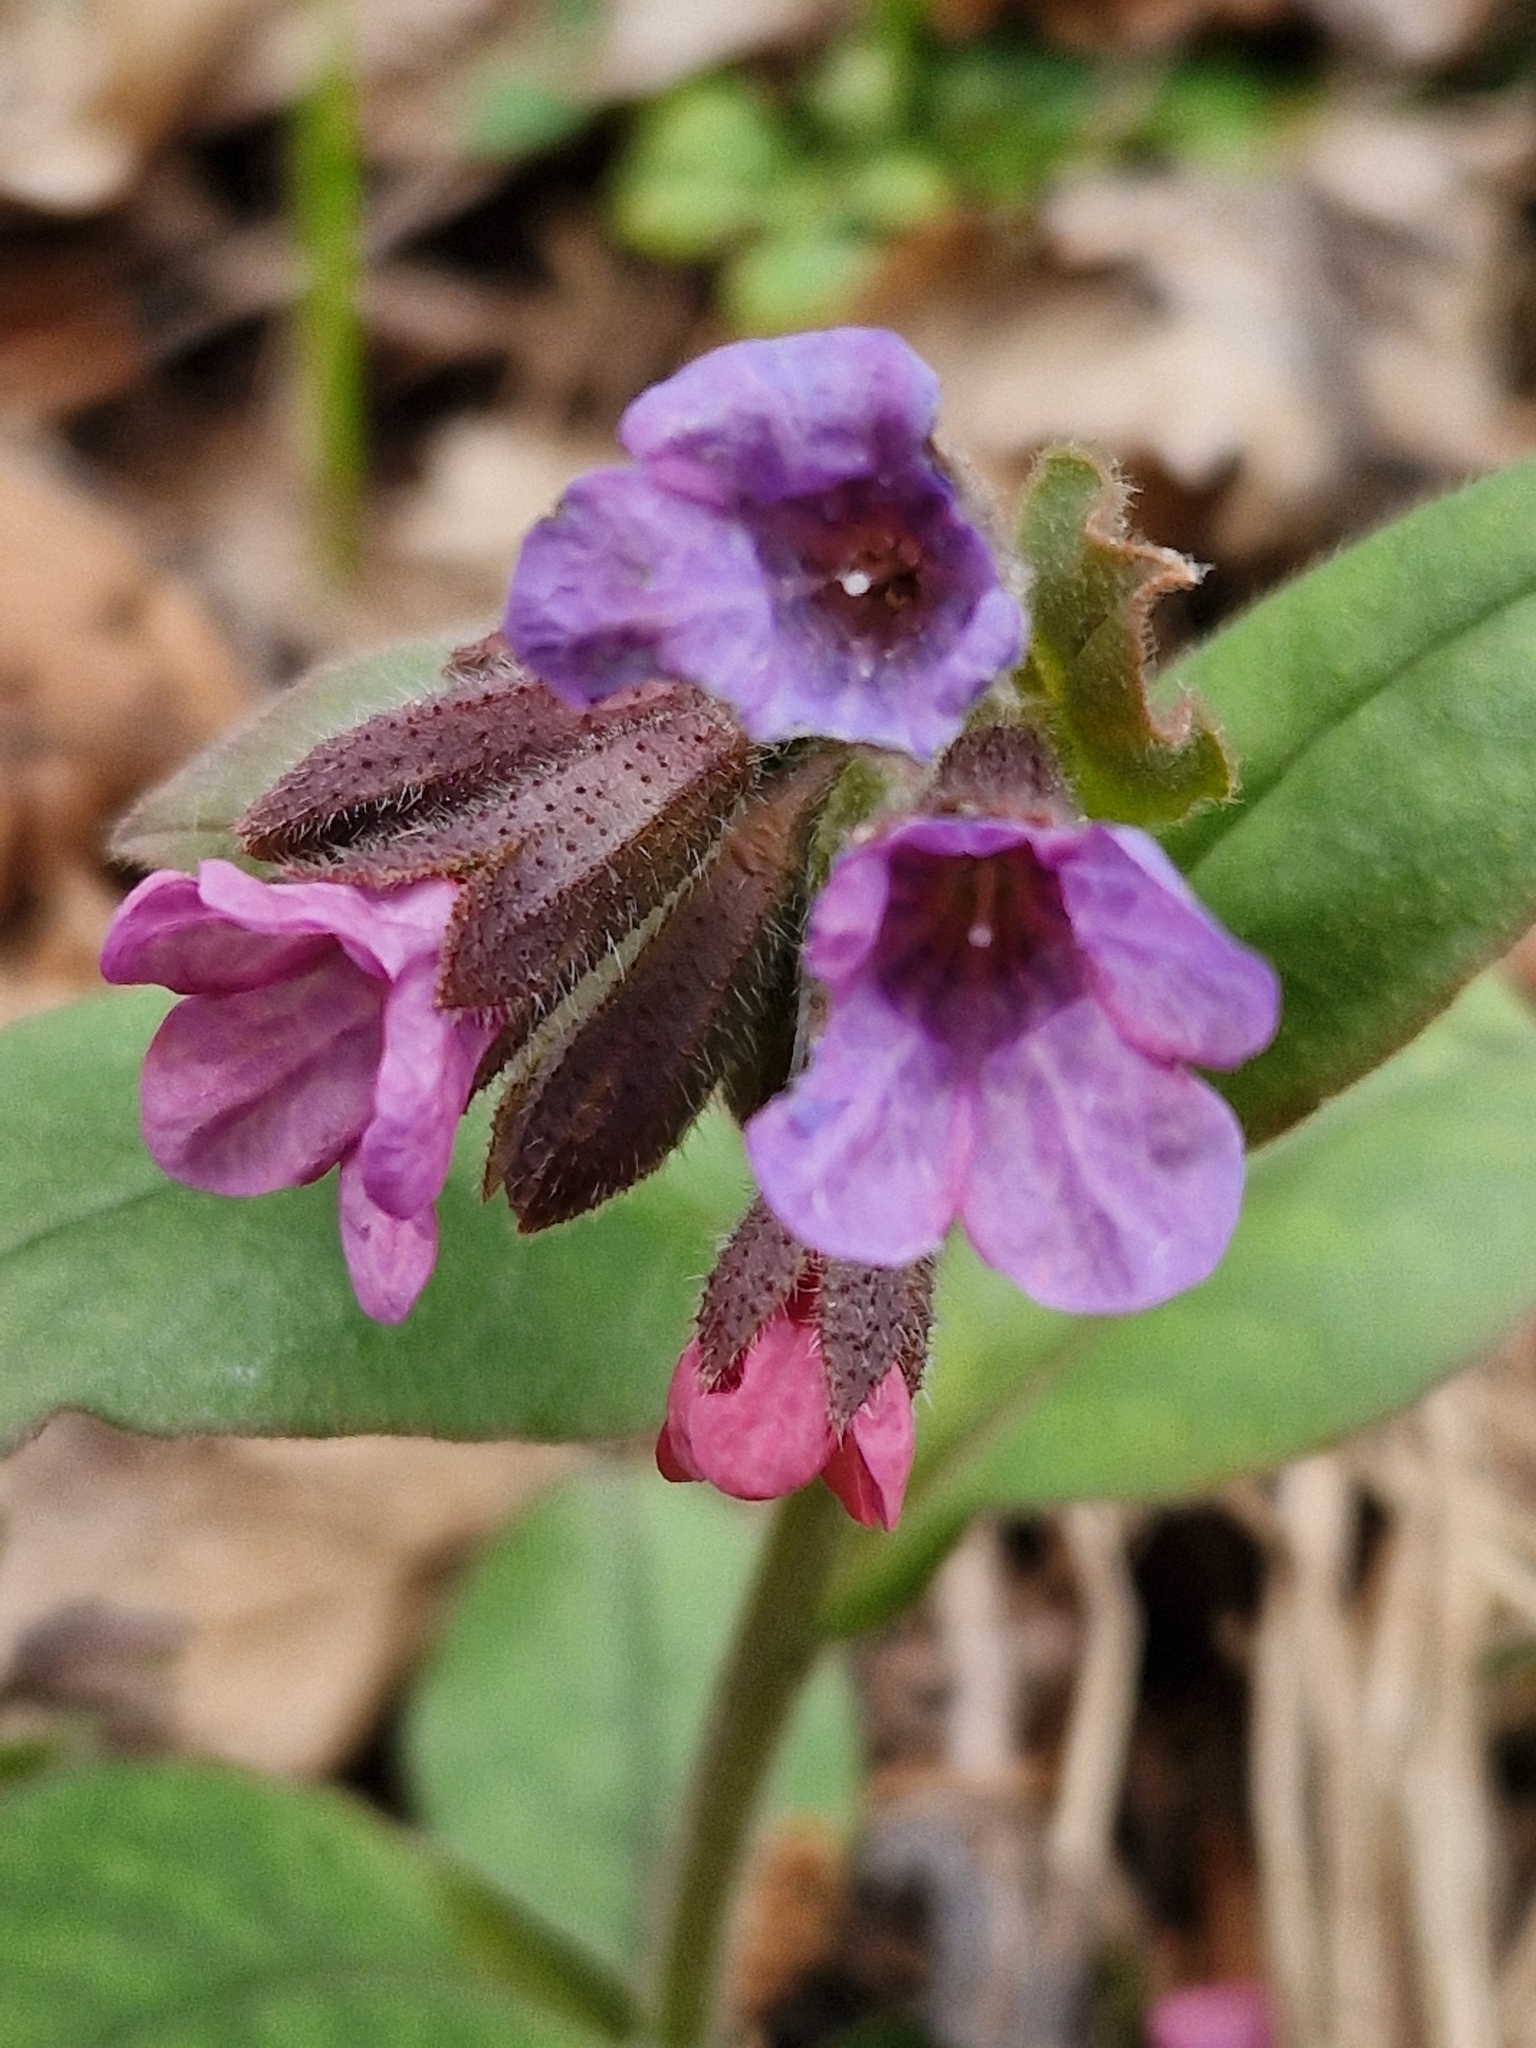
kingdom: Plantae
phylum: Tracheophyta
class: Magnoliopsida
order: Boraginales
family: Boraginaceae
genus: Pulmonaria
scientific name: Pulmonaria obscura
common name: Suffolk lungwort
